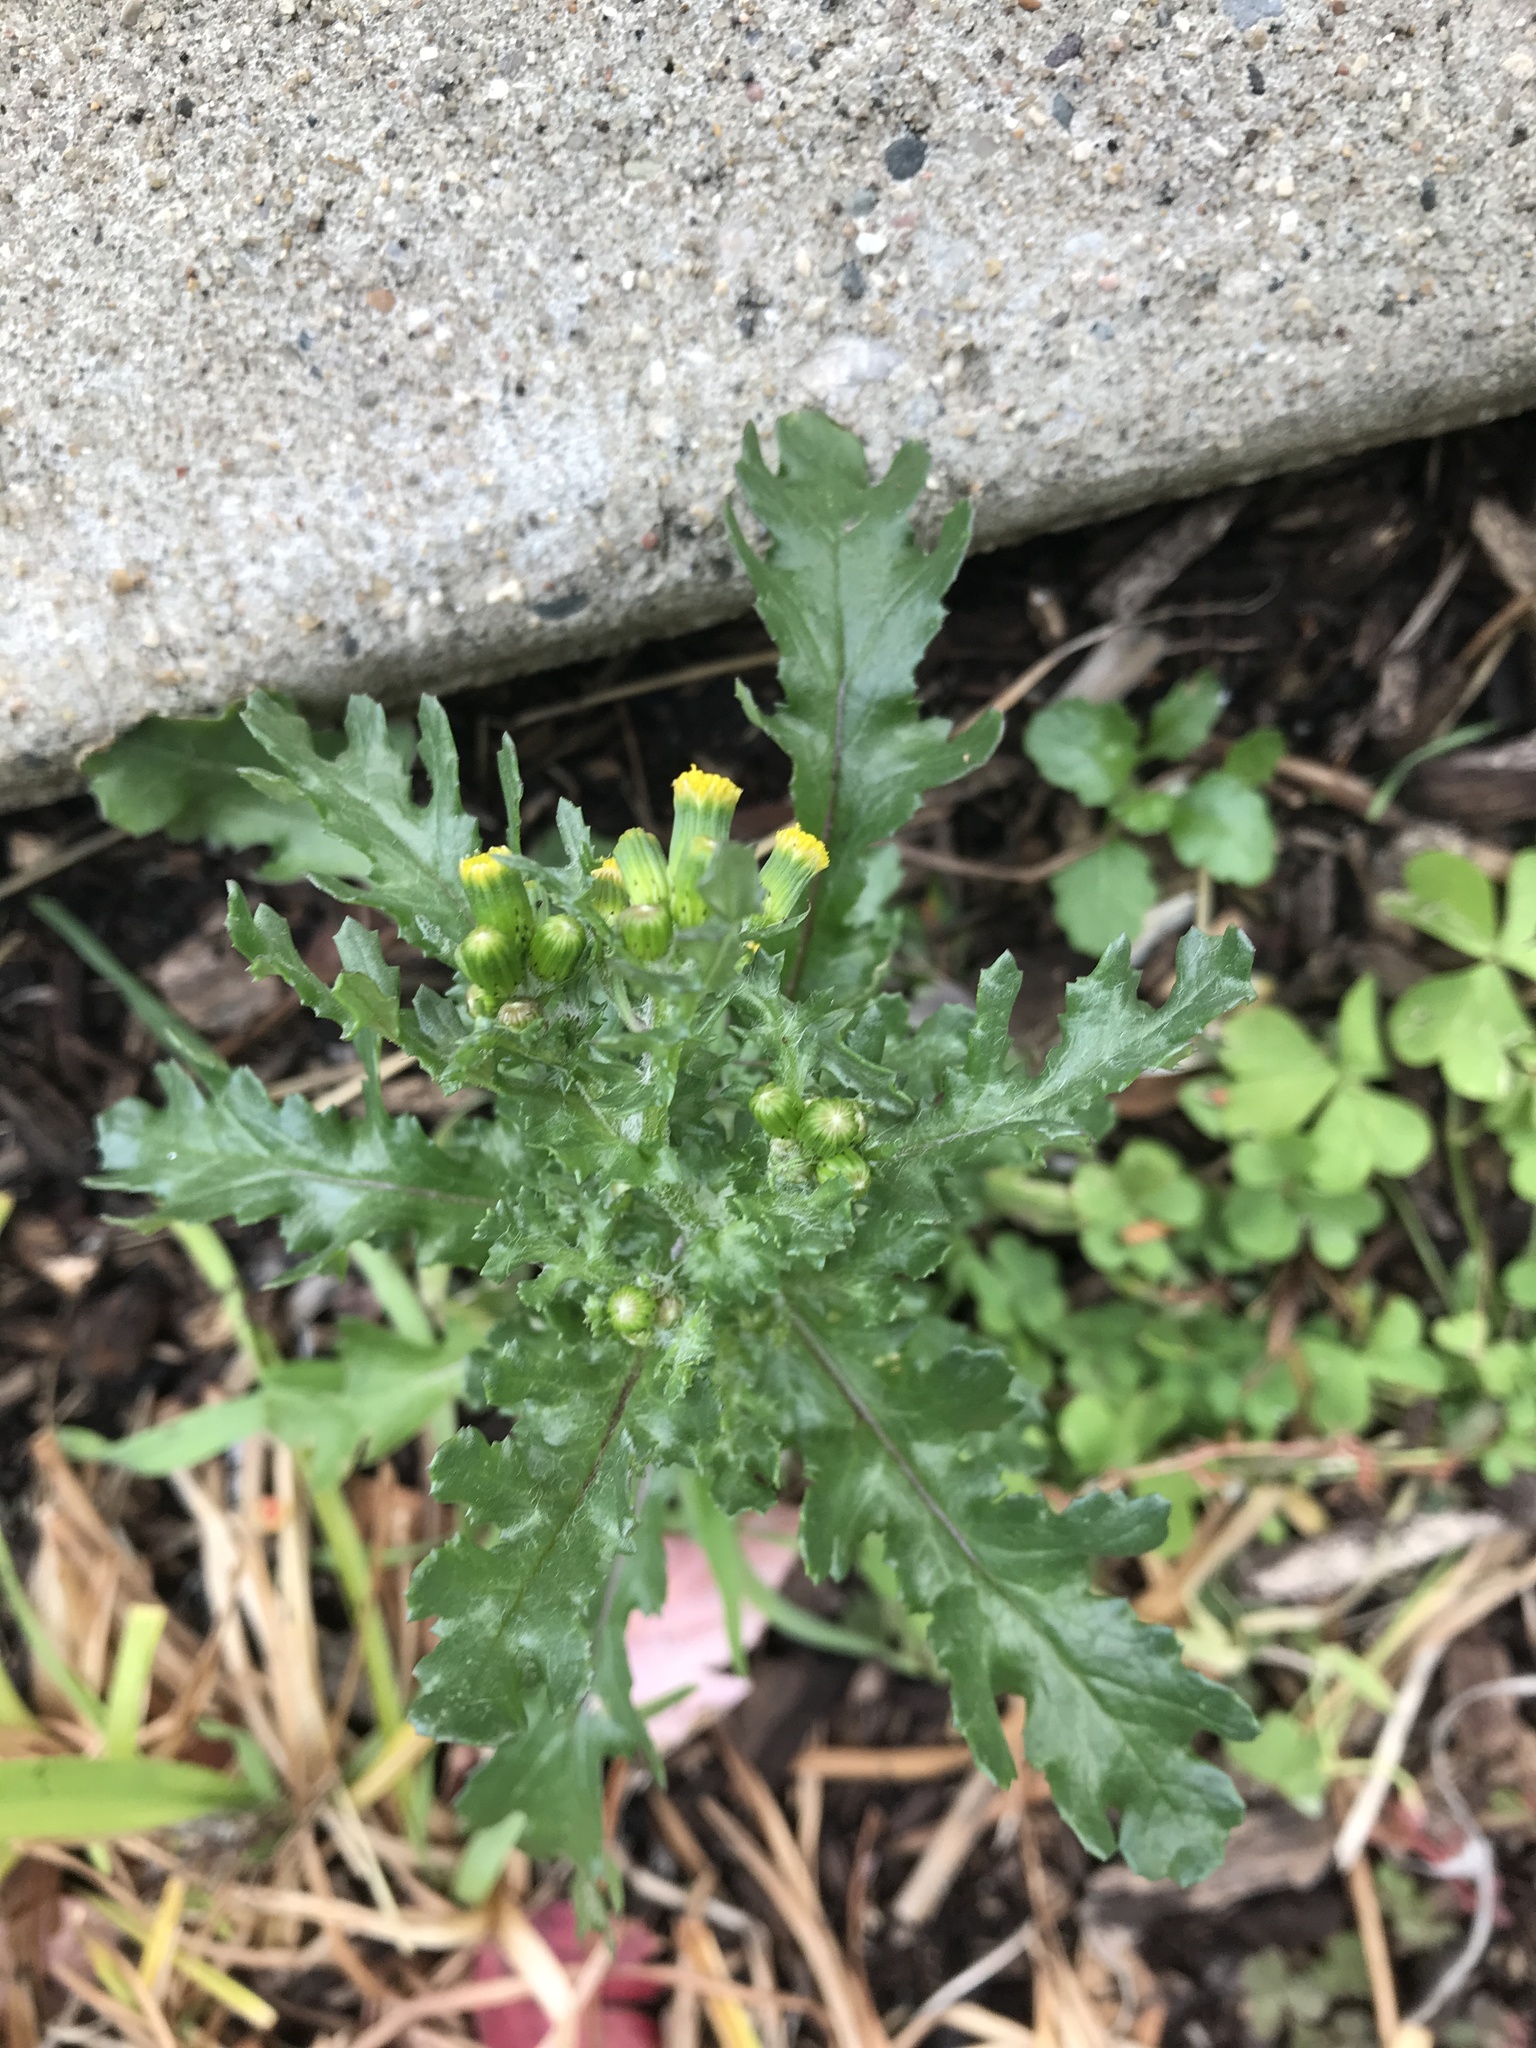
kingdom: Plantae
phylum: Tracheophyta
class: Magnoliopsida
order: Asterales
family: Asteraceae
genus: Senecio
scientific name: Senecio vulgaris
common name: Old-man-in-the-spring
